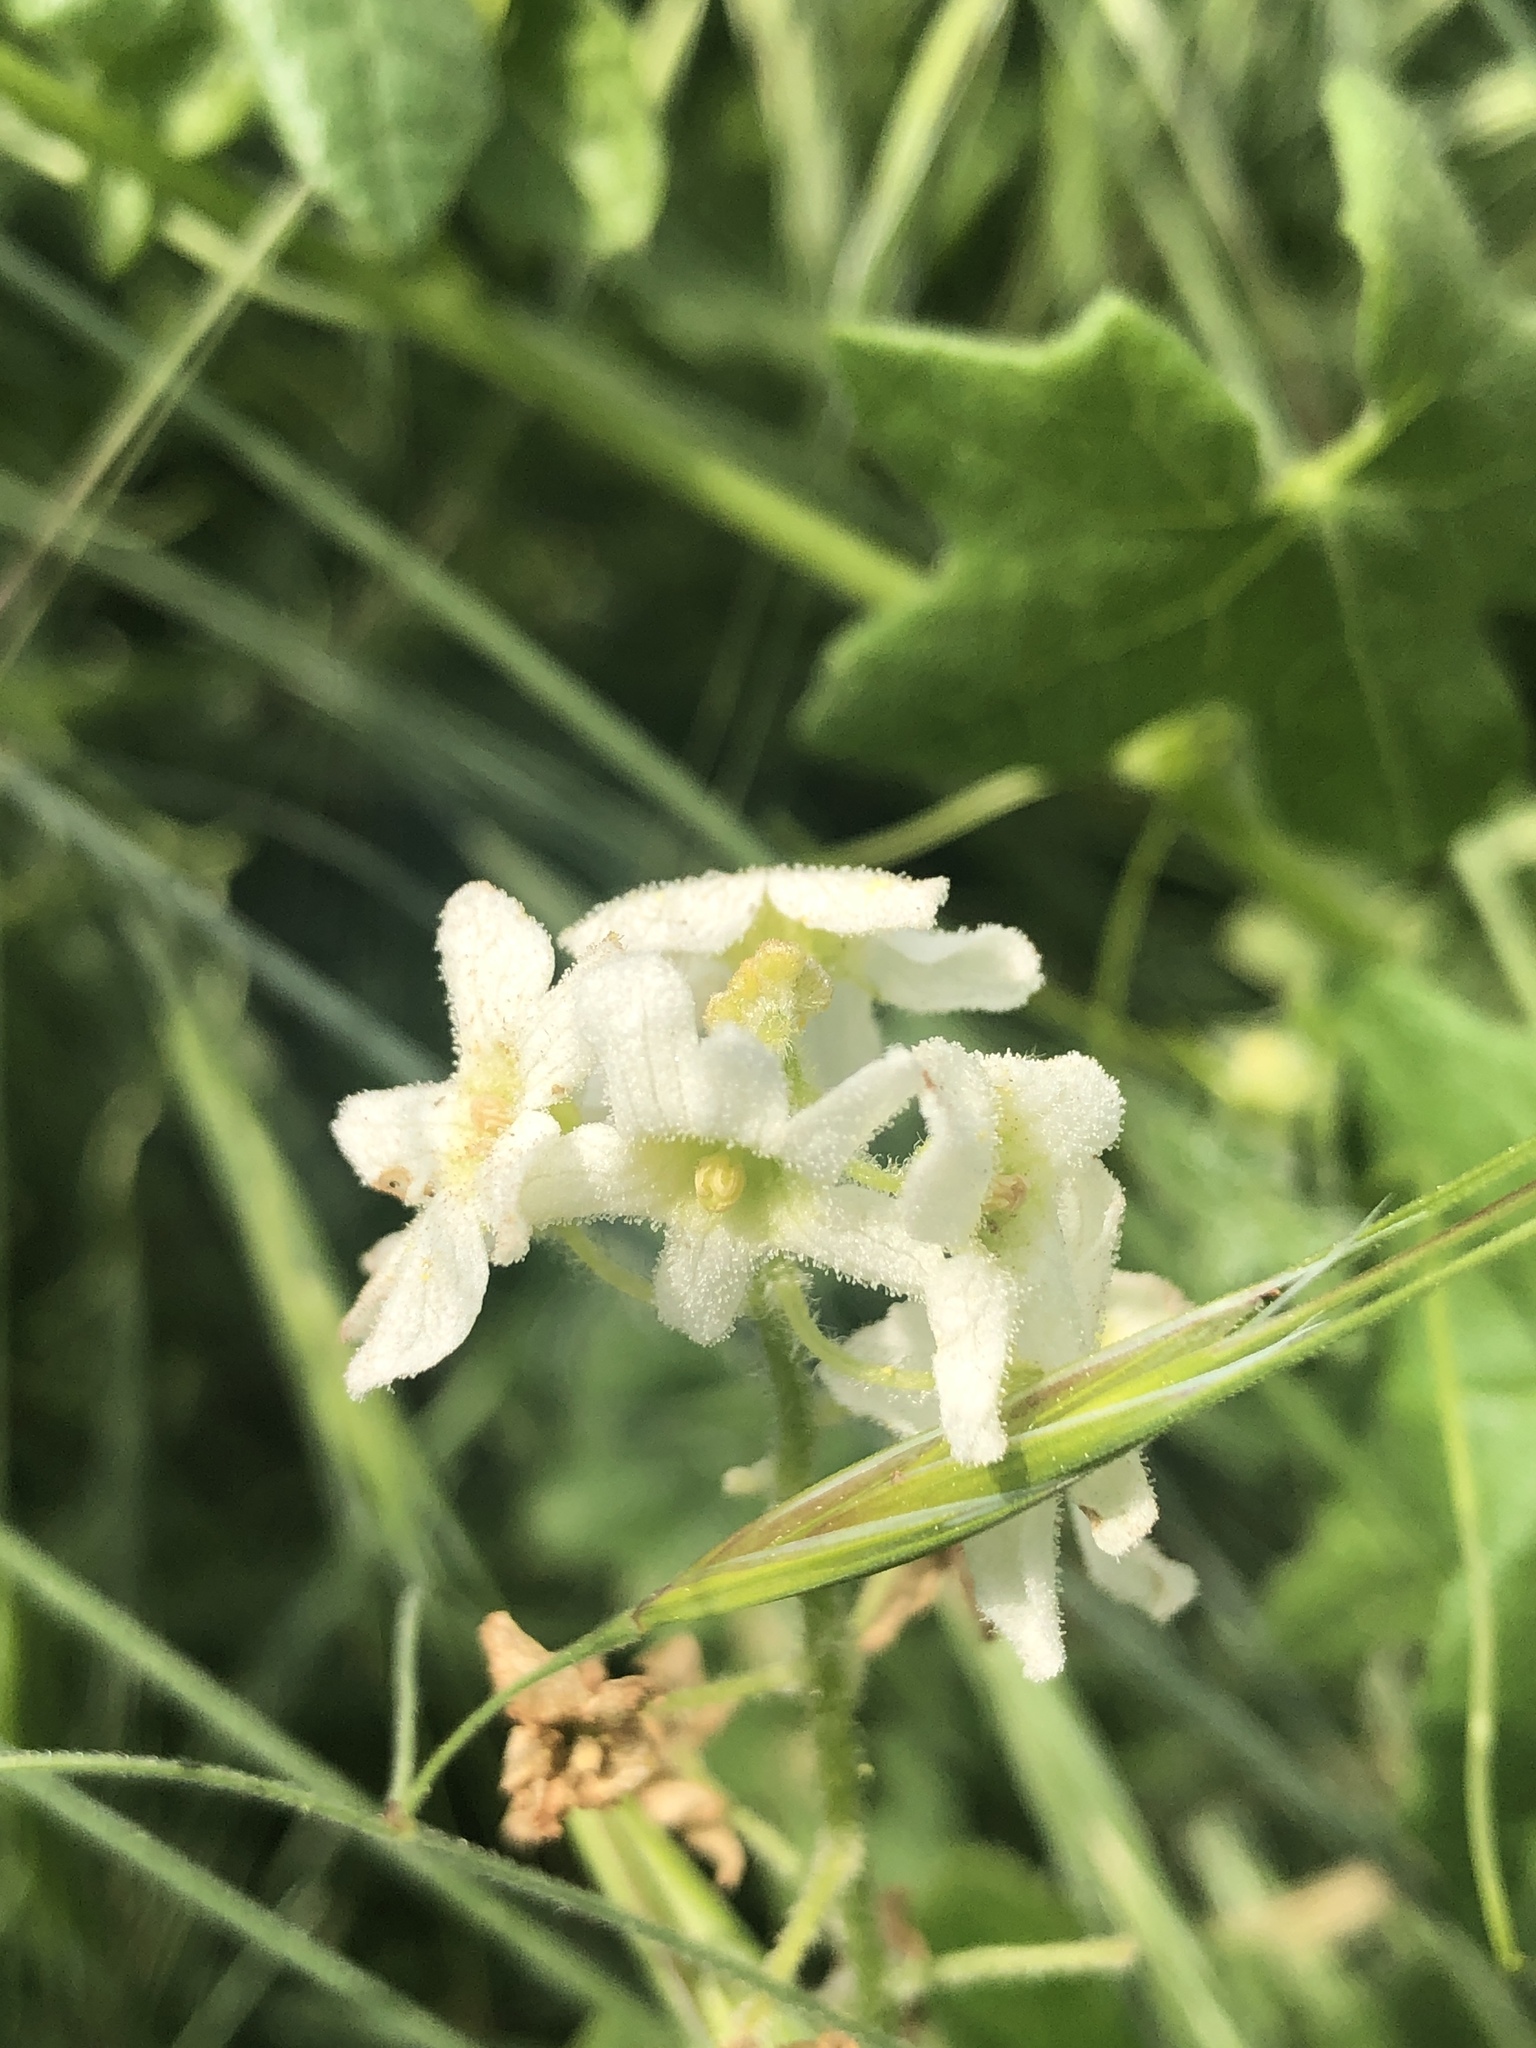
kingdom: Plantae
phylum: Tracheophyta
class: Magnoliopsida
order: Cucurbitales
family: Cucurbitaceae
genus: Marah
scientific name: Marah macrocarpa
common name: Cucamonga manroot
